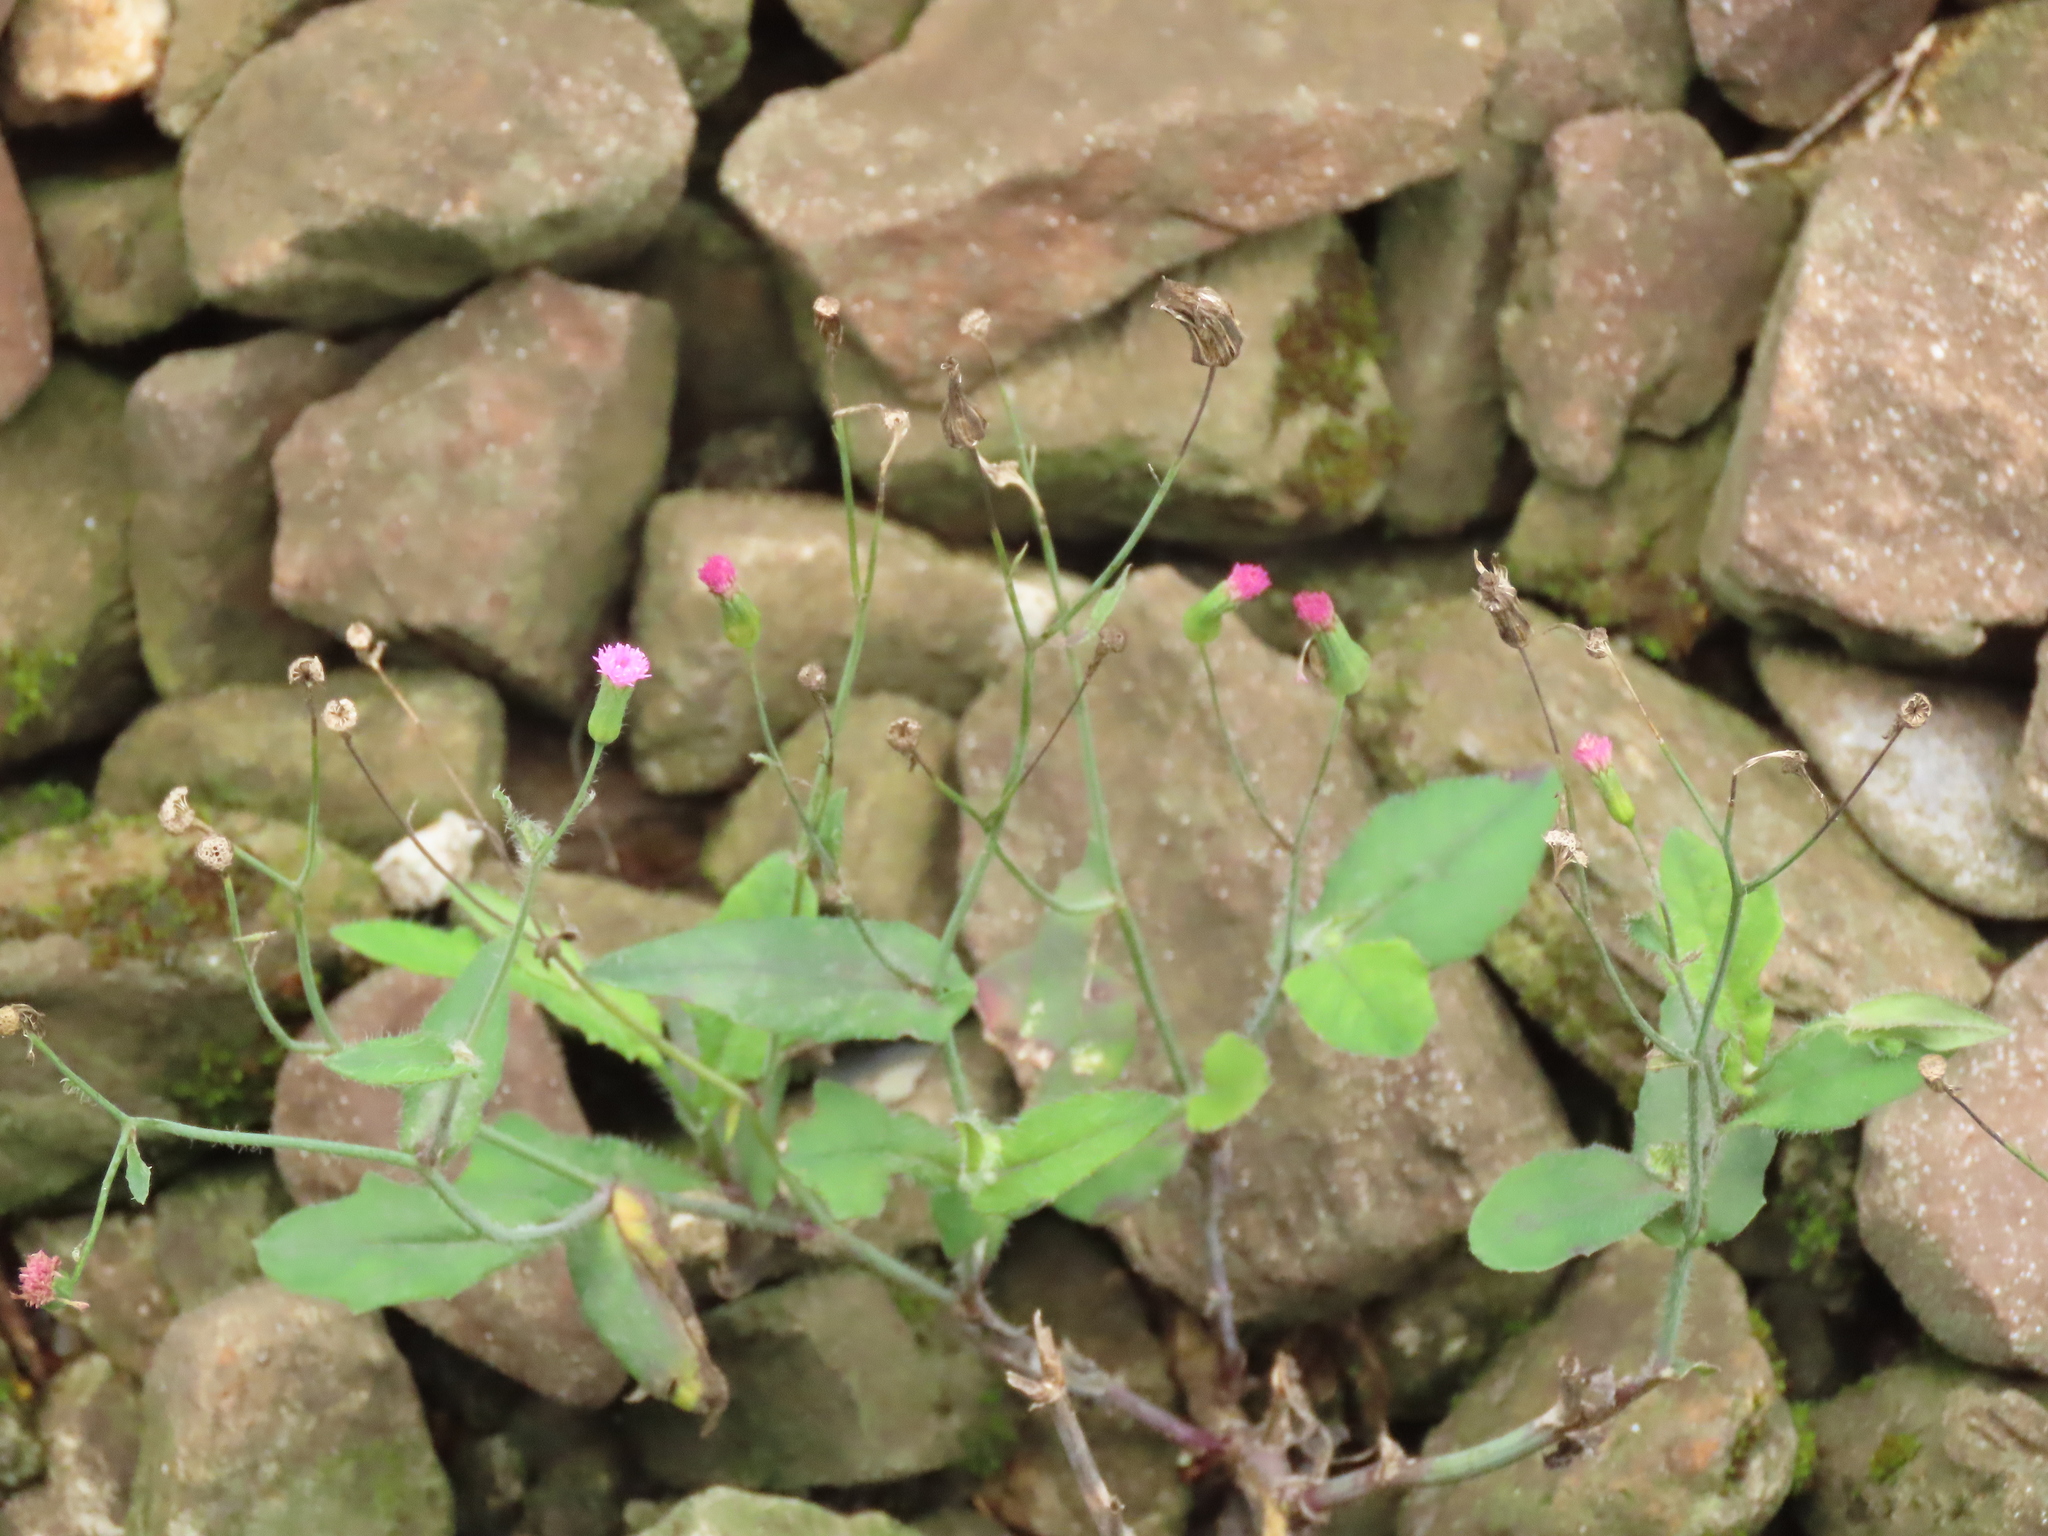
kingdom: Plantae
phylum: Tracheophyta
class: Magnoliopsida
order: Asterales
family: Asteraceae
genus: Emilia
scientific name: Emilia javanica
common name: Tassel-flower
